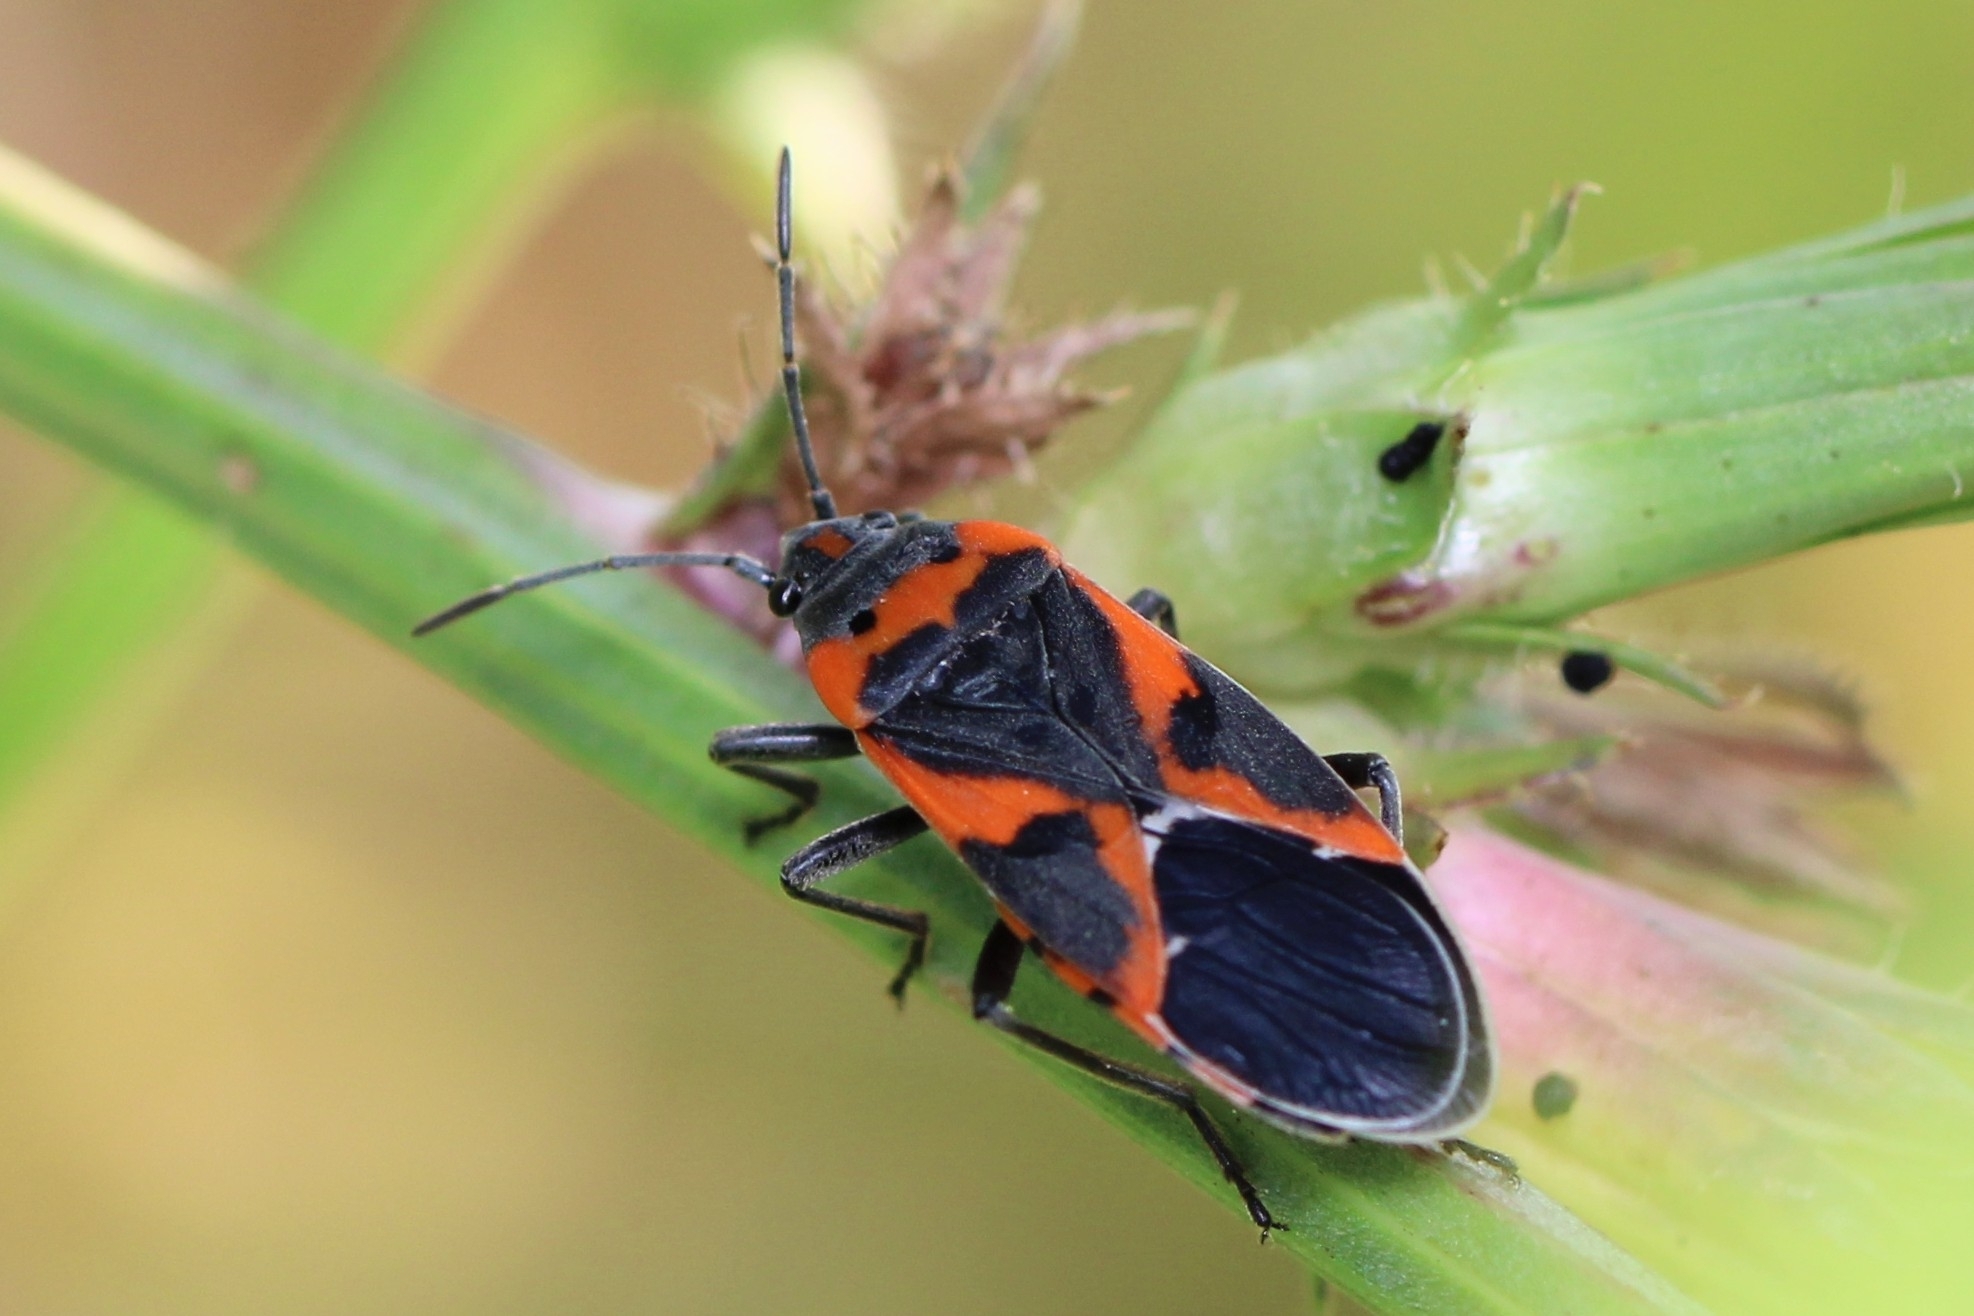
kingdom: Animalia
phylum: Arthropoda
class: Insecta
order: Hemiptera
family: Lygaeidae
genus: Lygaeus
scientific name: Lygaeus kalmii
